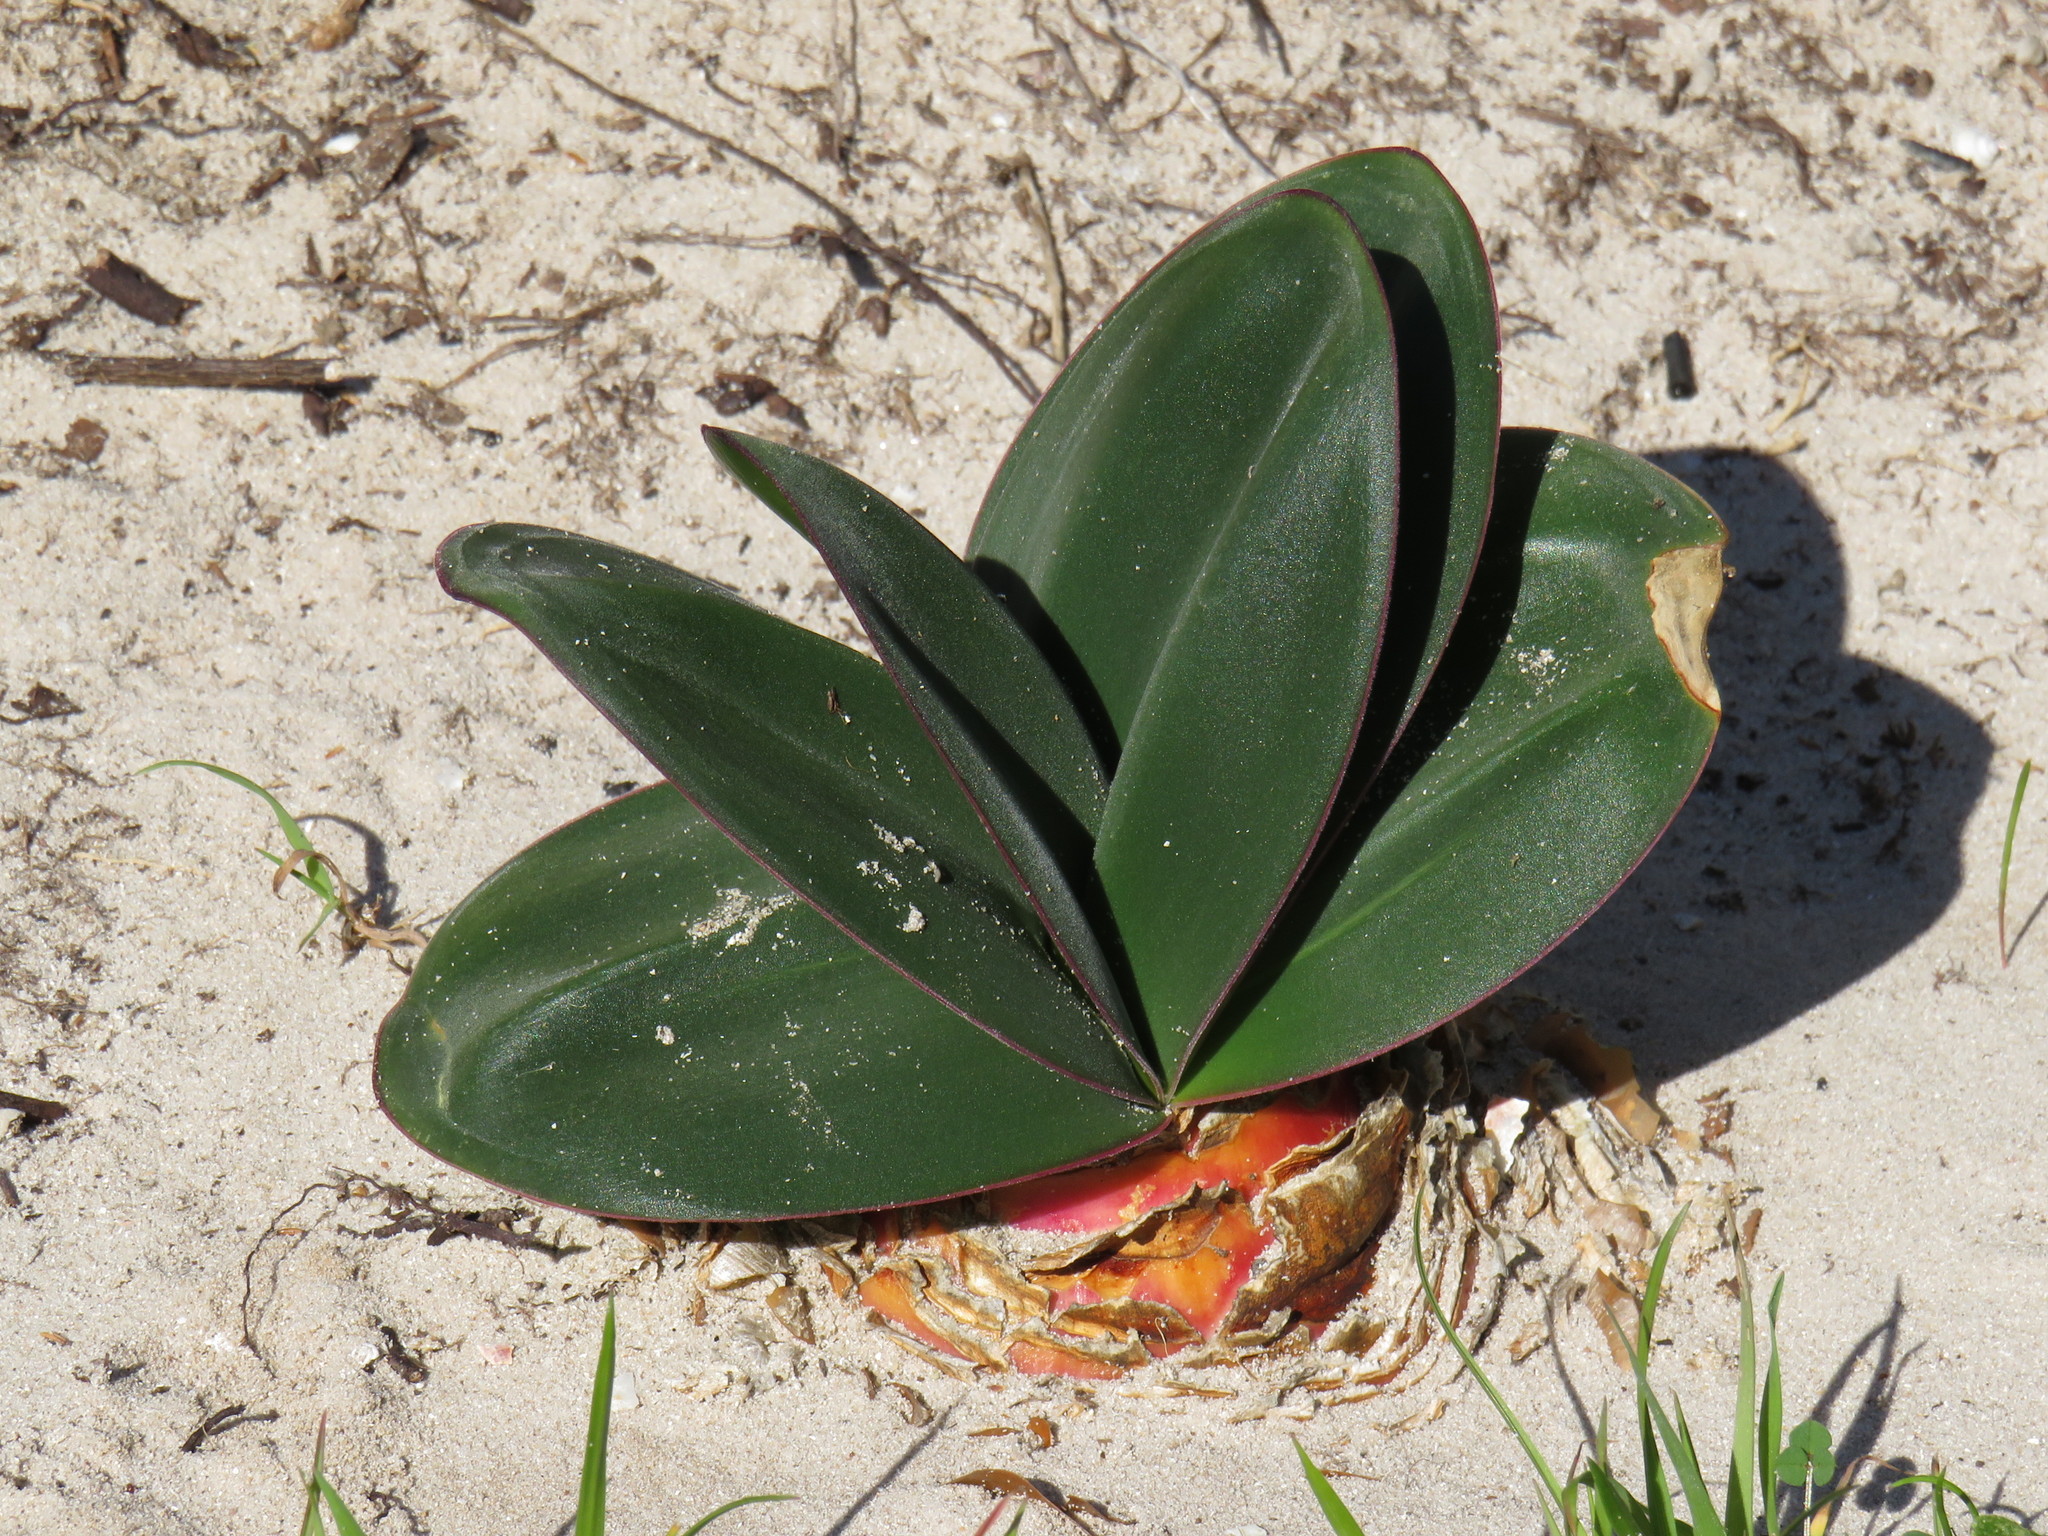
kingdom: Plantae
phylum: Tracheophyta
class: Liliopsida
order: Asparagales
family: Amaryllidaceae
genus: Brunsvigia
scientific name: Brunsvigia orientalis
